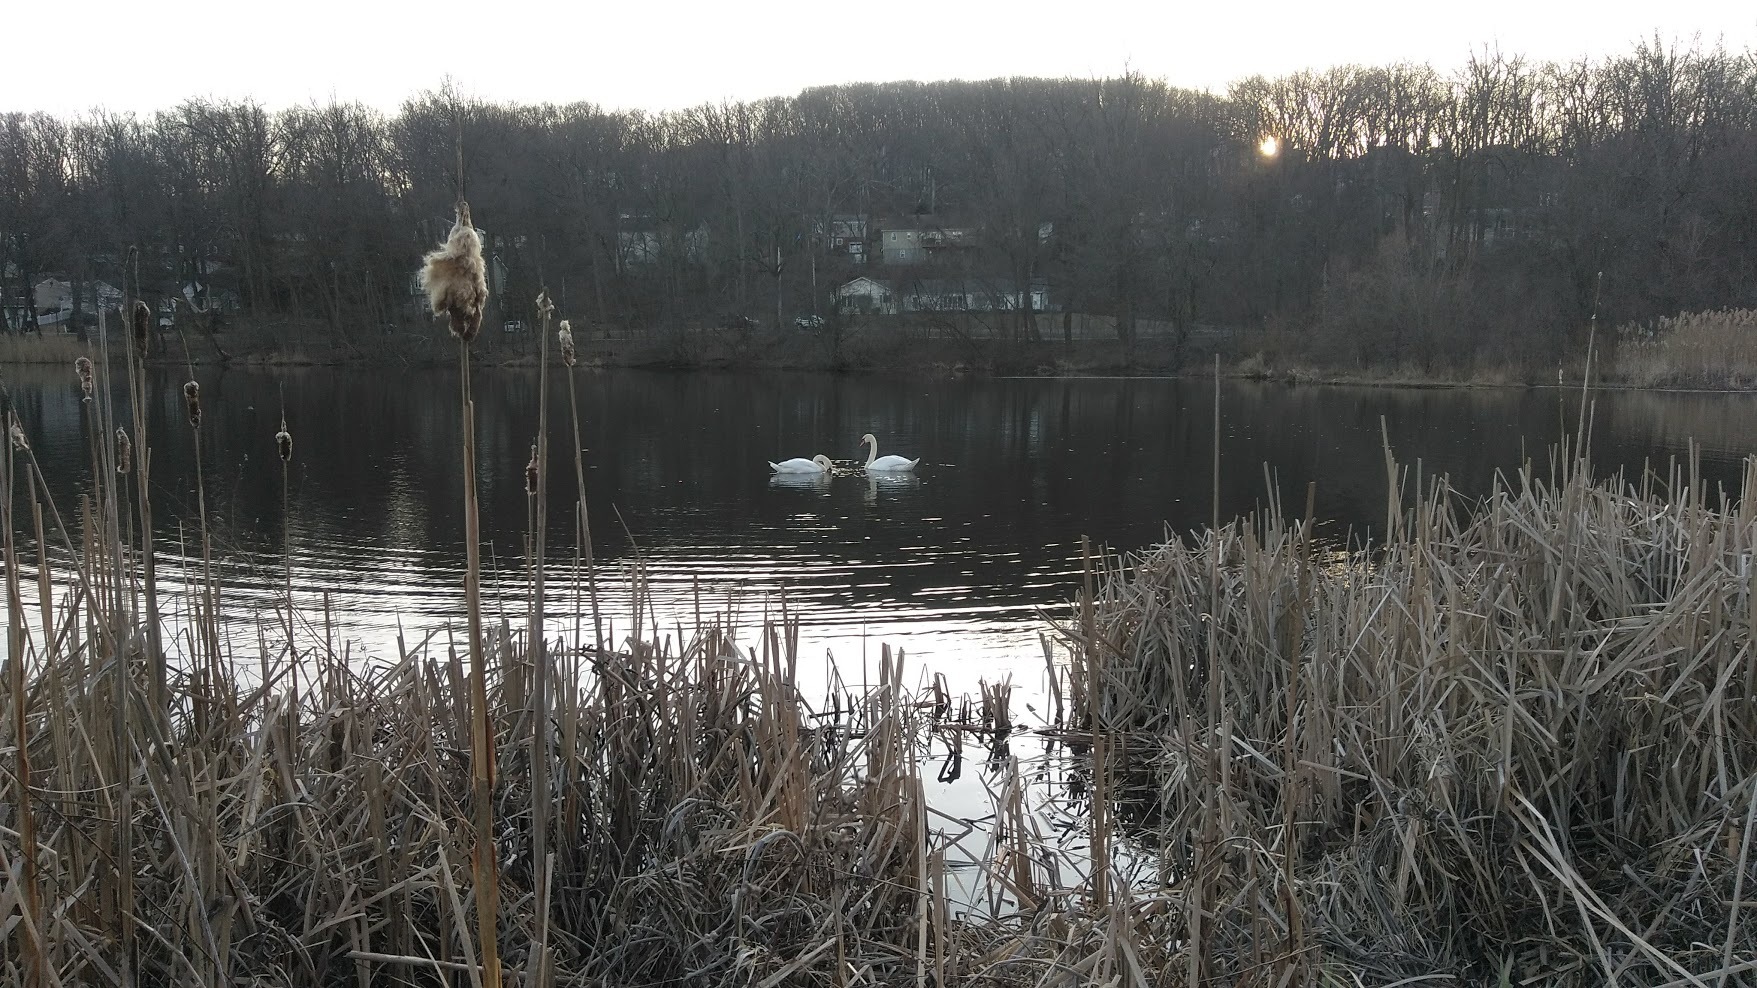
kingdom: Animalia
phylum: Chordata
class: Aves
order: Anseriformes
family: Anatidae
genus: Cygnus
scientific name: Cygnus olor
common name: Mute swan
